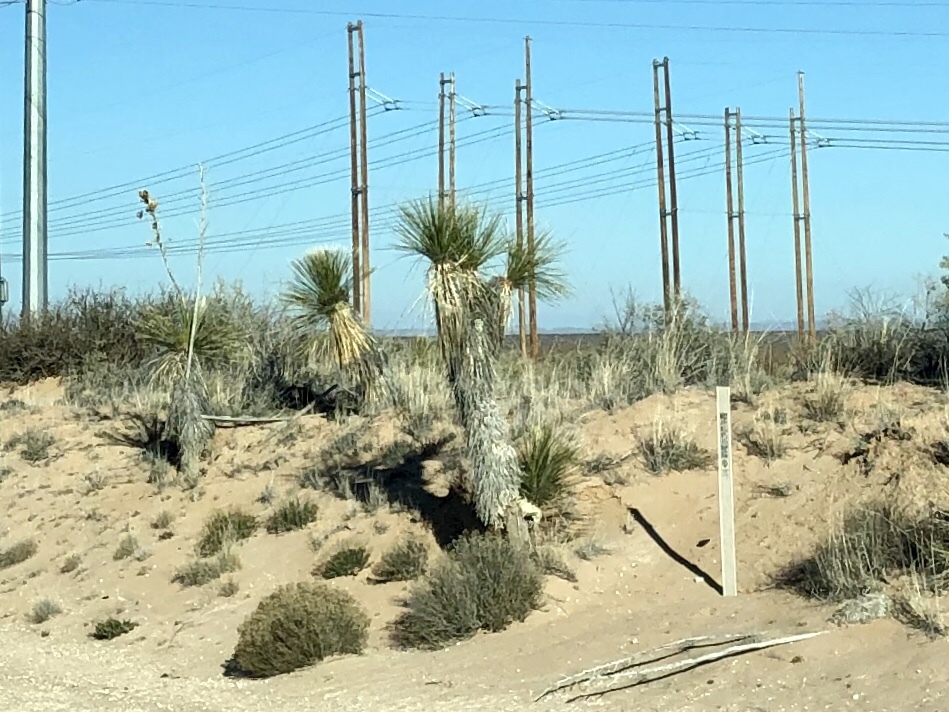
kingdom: Plantae
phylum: Tracheophyta
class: Liliopsida
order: Asparagales
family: Asparagaceae
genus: Yucca
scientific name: Yucca elata
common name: Palmella
